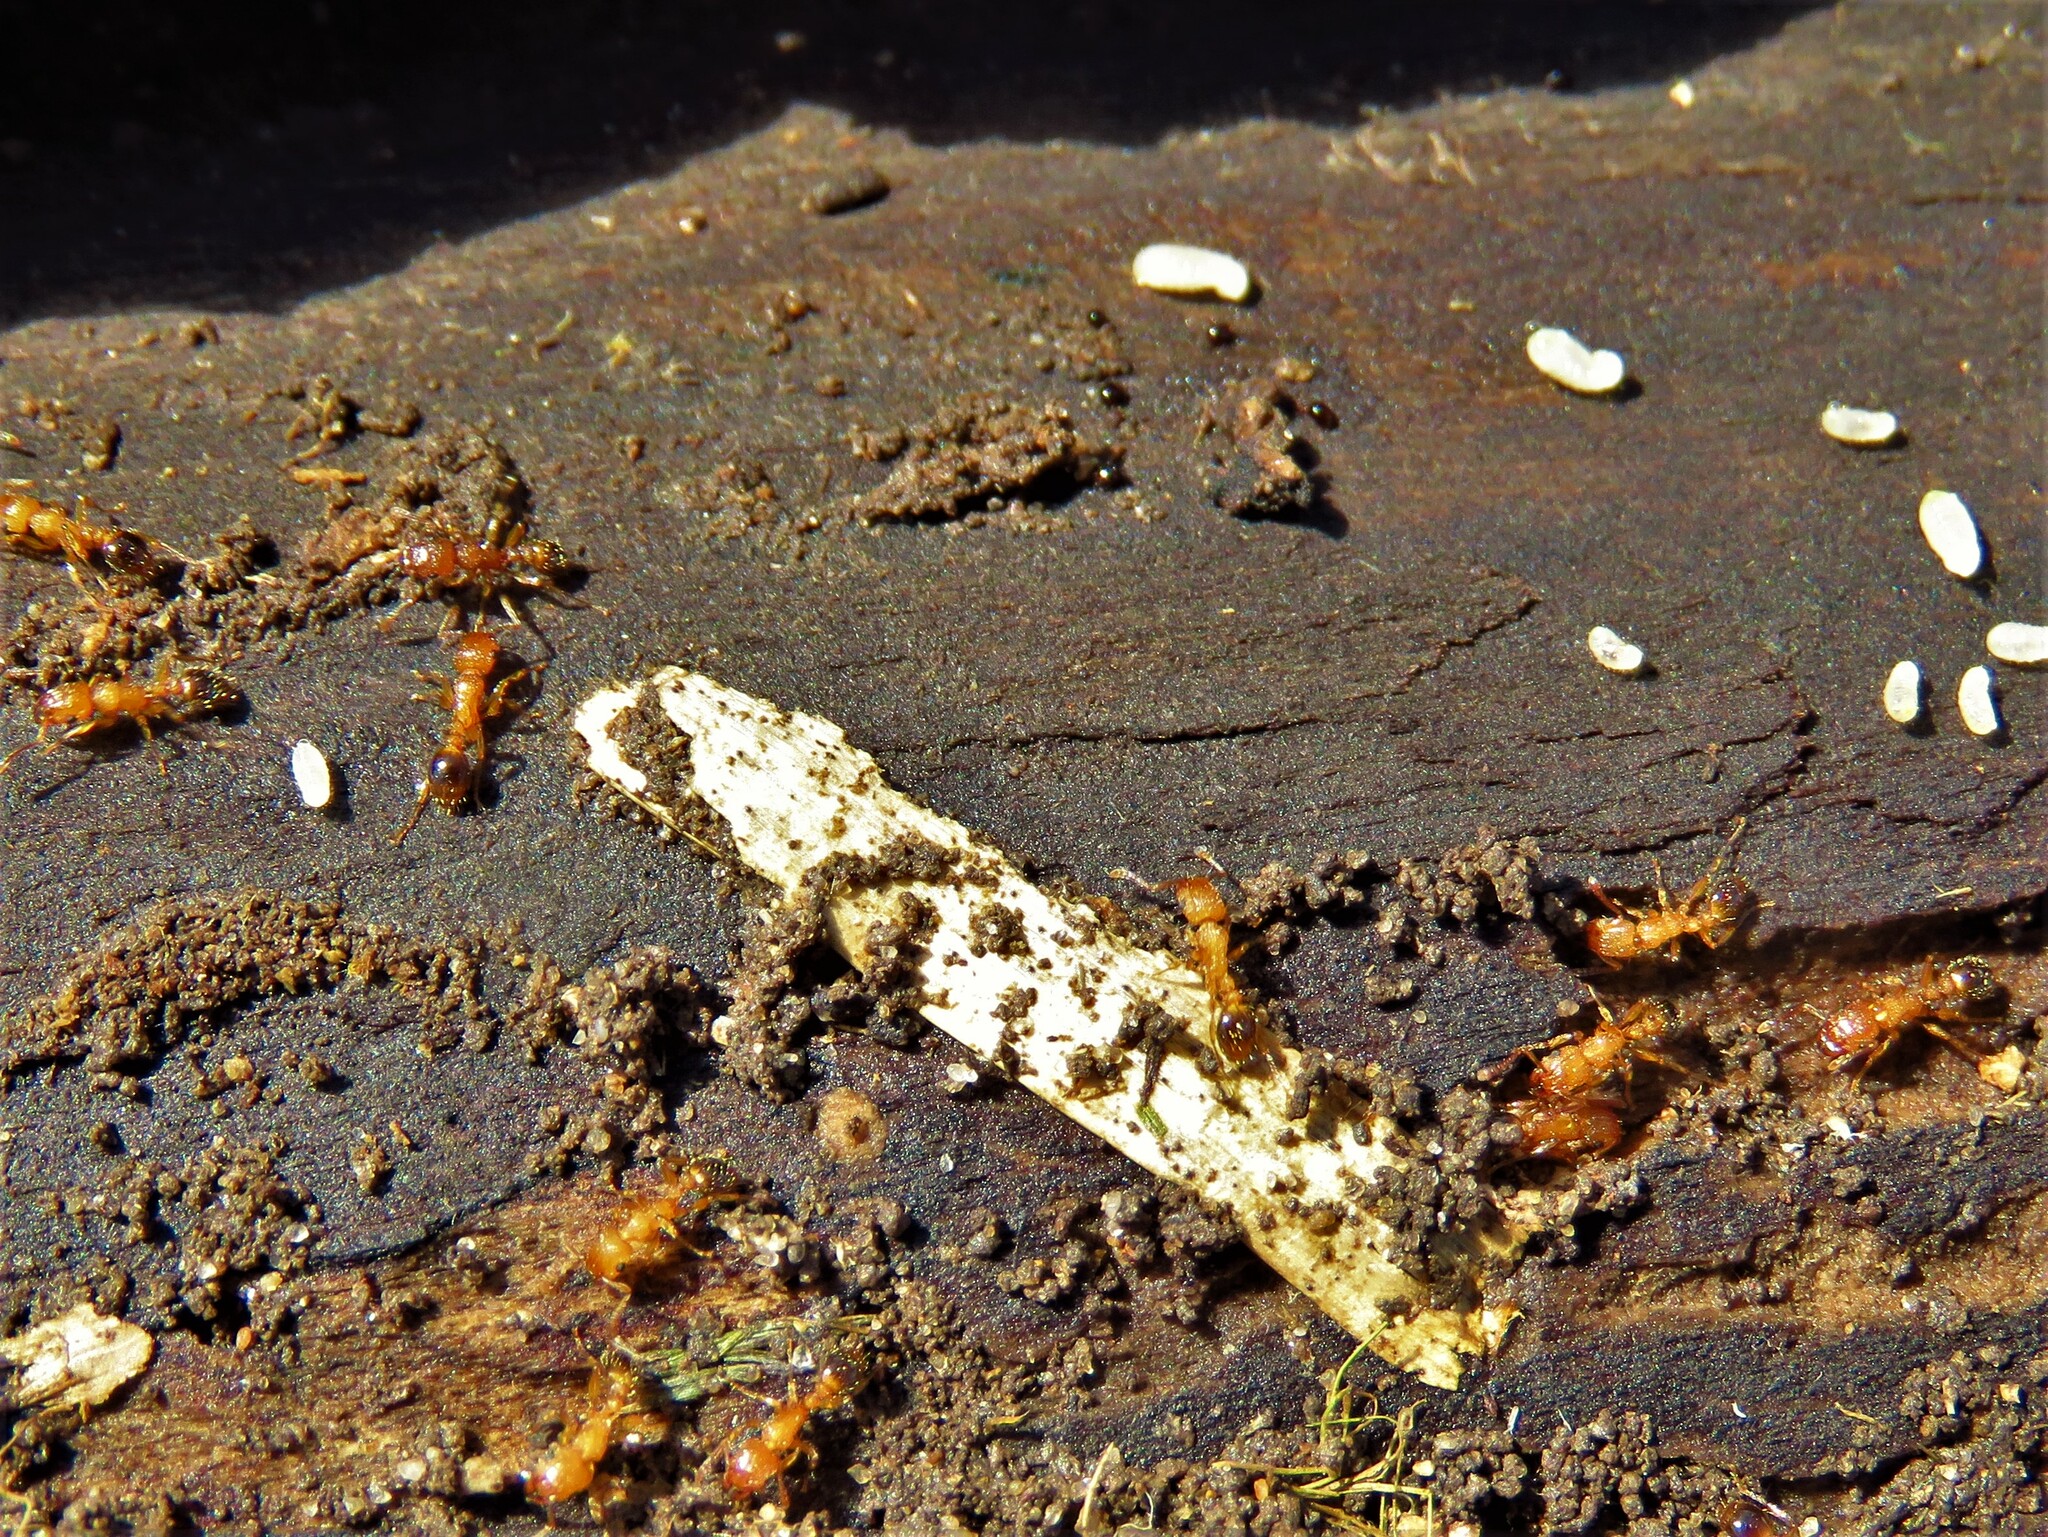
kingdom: Animalia
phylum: Arthropoda
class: Insecta
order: Hymenoptera
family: Formicidae
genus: Tetramorium
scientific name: Tetramorium bicarinatum
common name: Guinea ant
